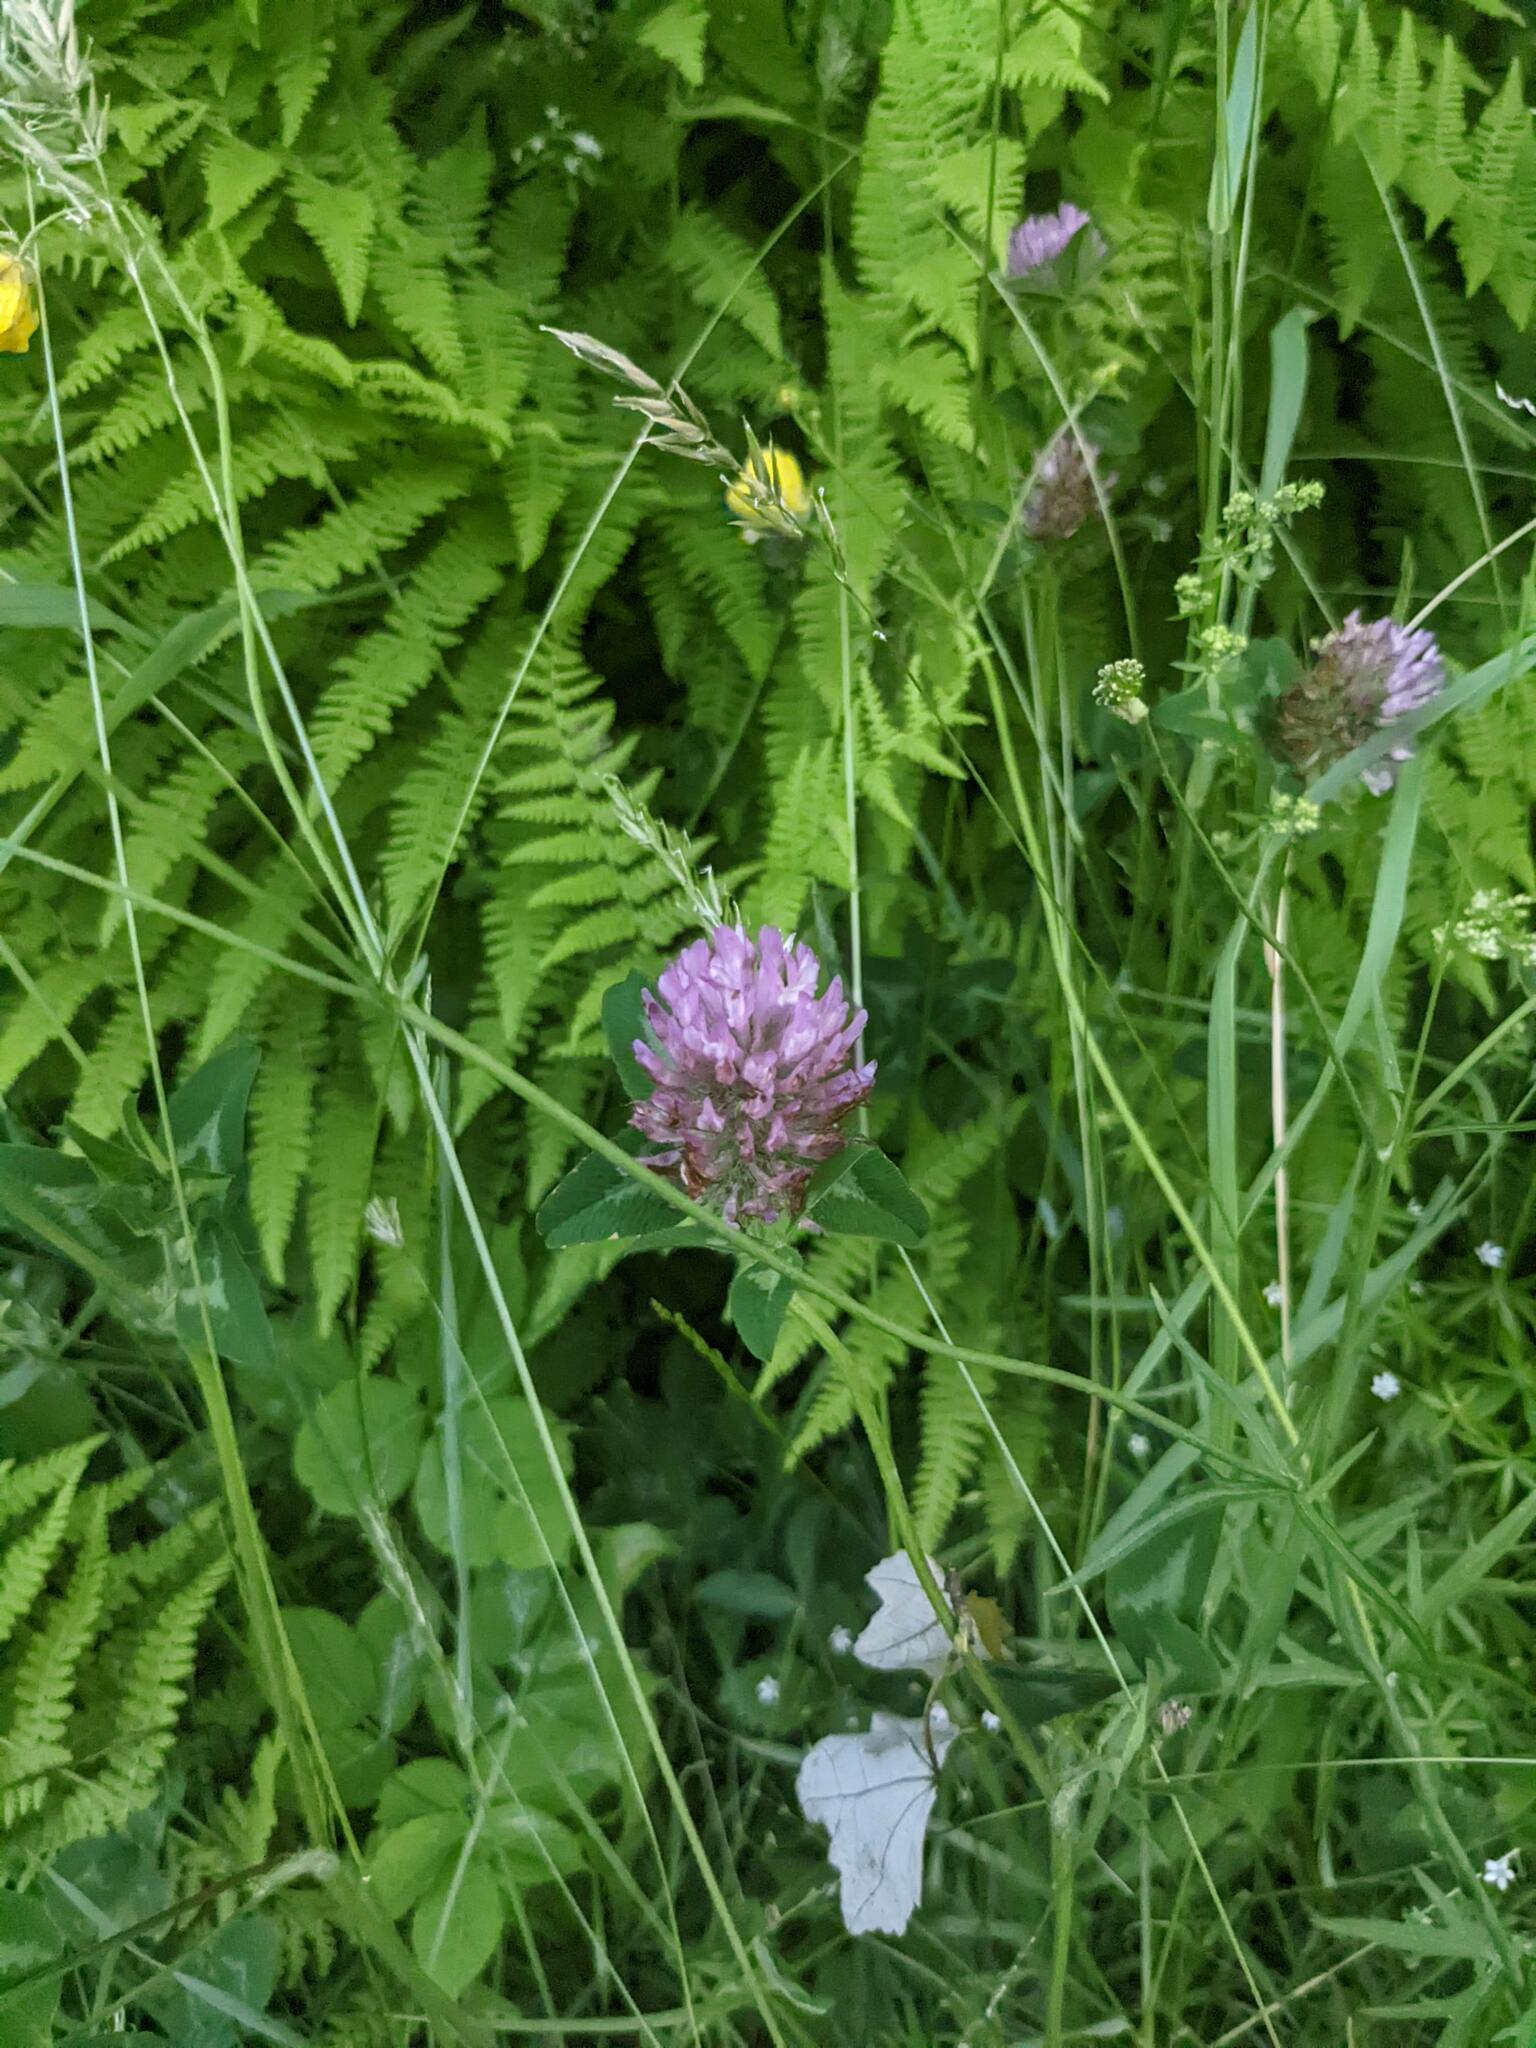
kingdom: Plantae
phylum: Tracheophyta
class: Magnoliopsida
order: Fabales
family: Fabaceae
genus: Trifolium
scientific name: Trifolium pratense
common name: Red clover
